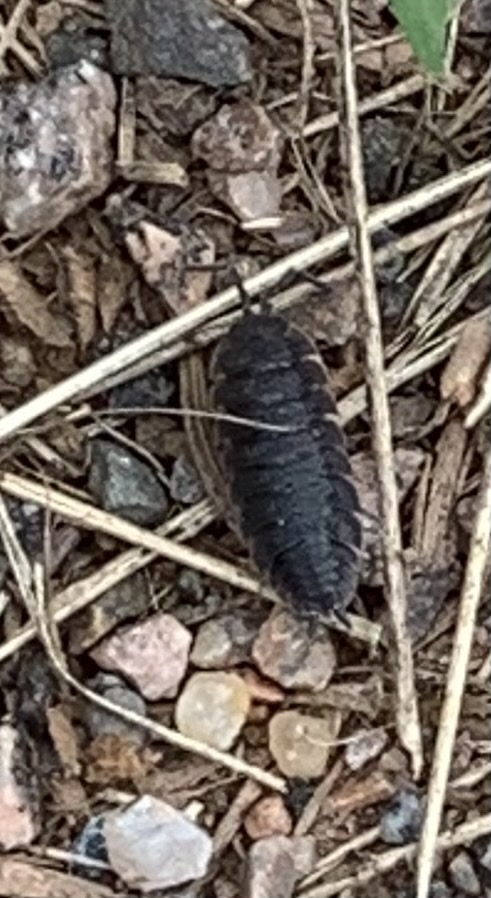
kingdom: Animalia
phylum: Arthropoda
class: Malacostraca
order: Isopoda
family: Porcellionidae
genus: Porcellio
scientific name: Porcellio scaber
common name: Common rough woodlouse
